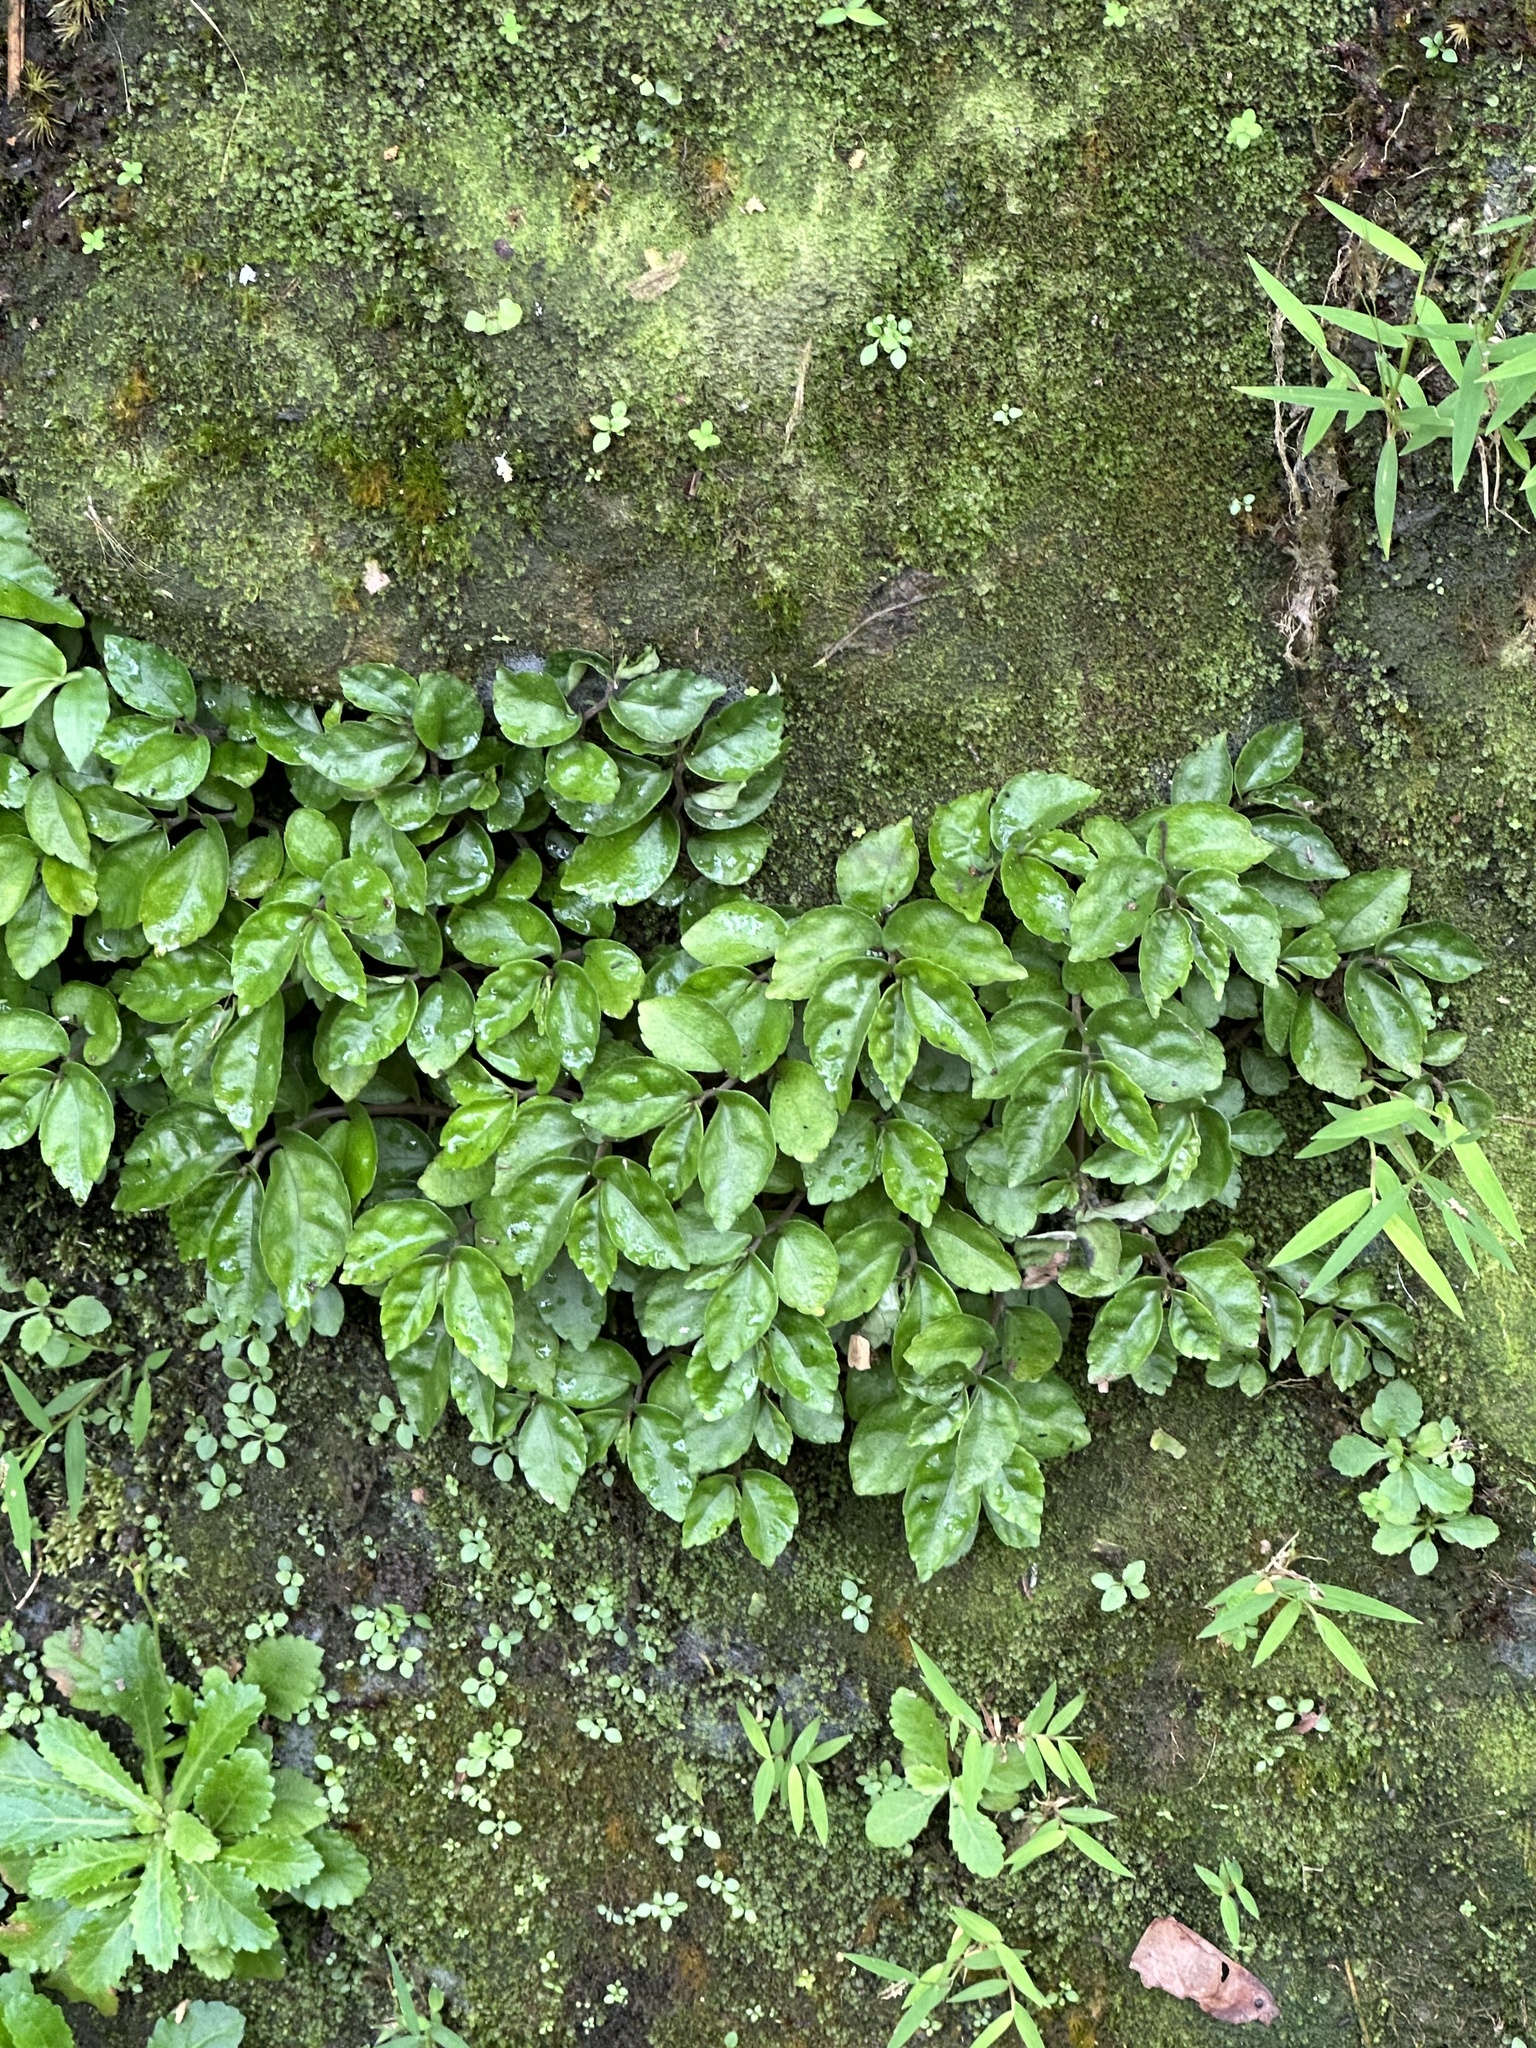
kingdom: Plantae
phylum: Tracheophyta
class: Magnoliopsida
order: Rosales
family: Urticaceae
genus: Elatostema
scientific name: Elatostema radicans
